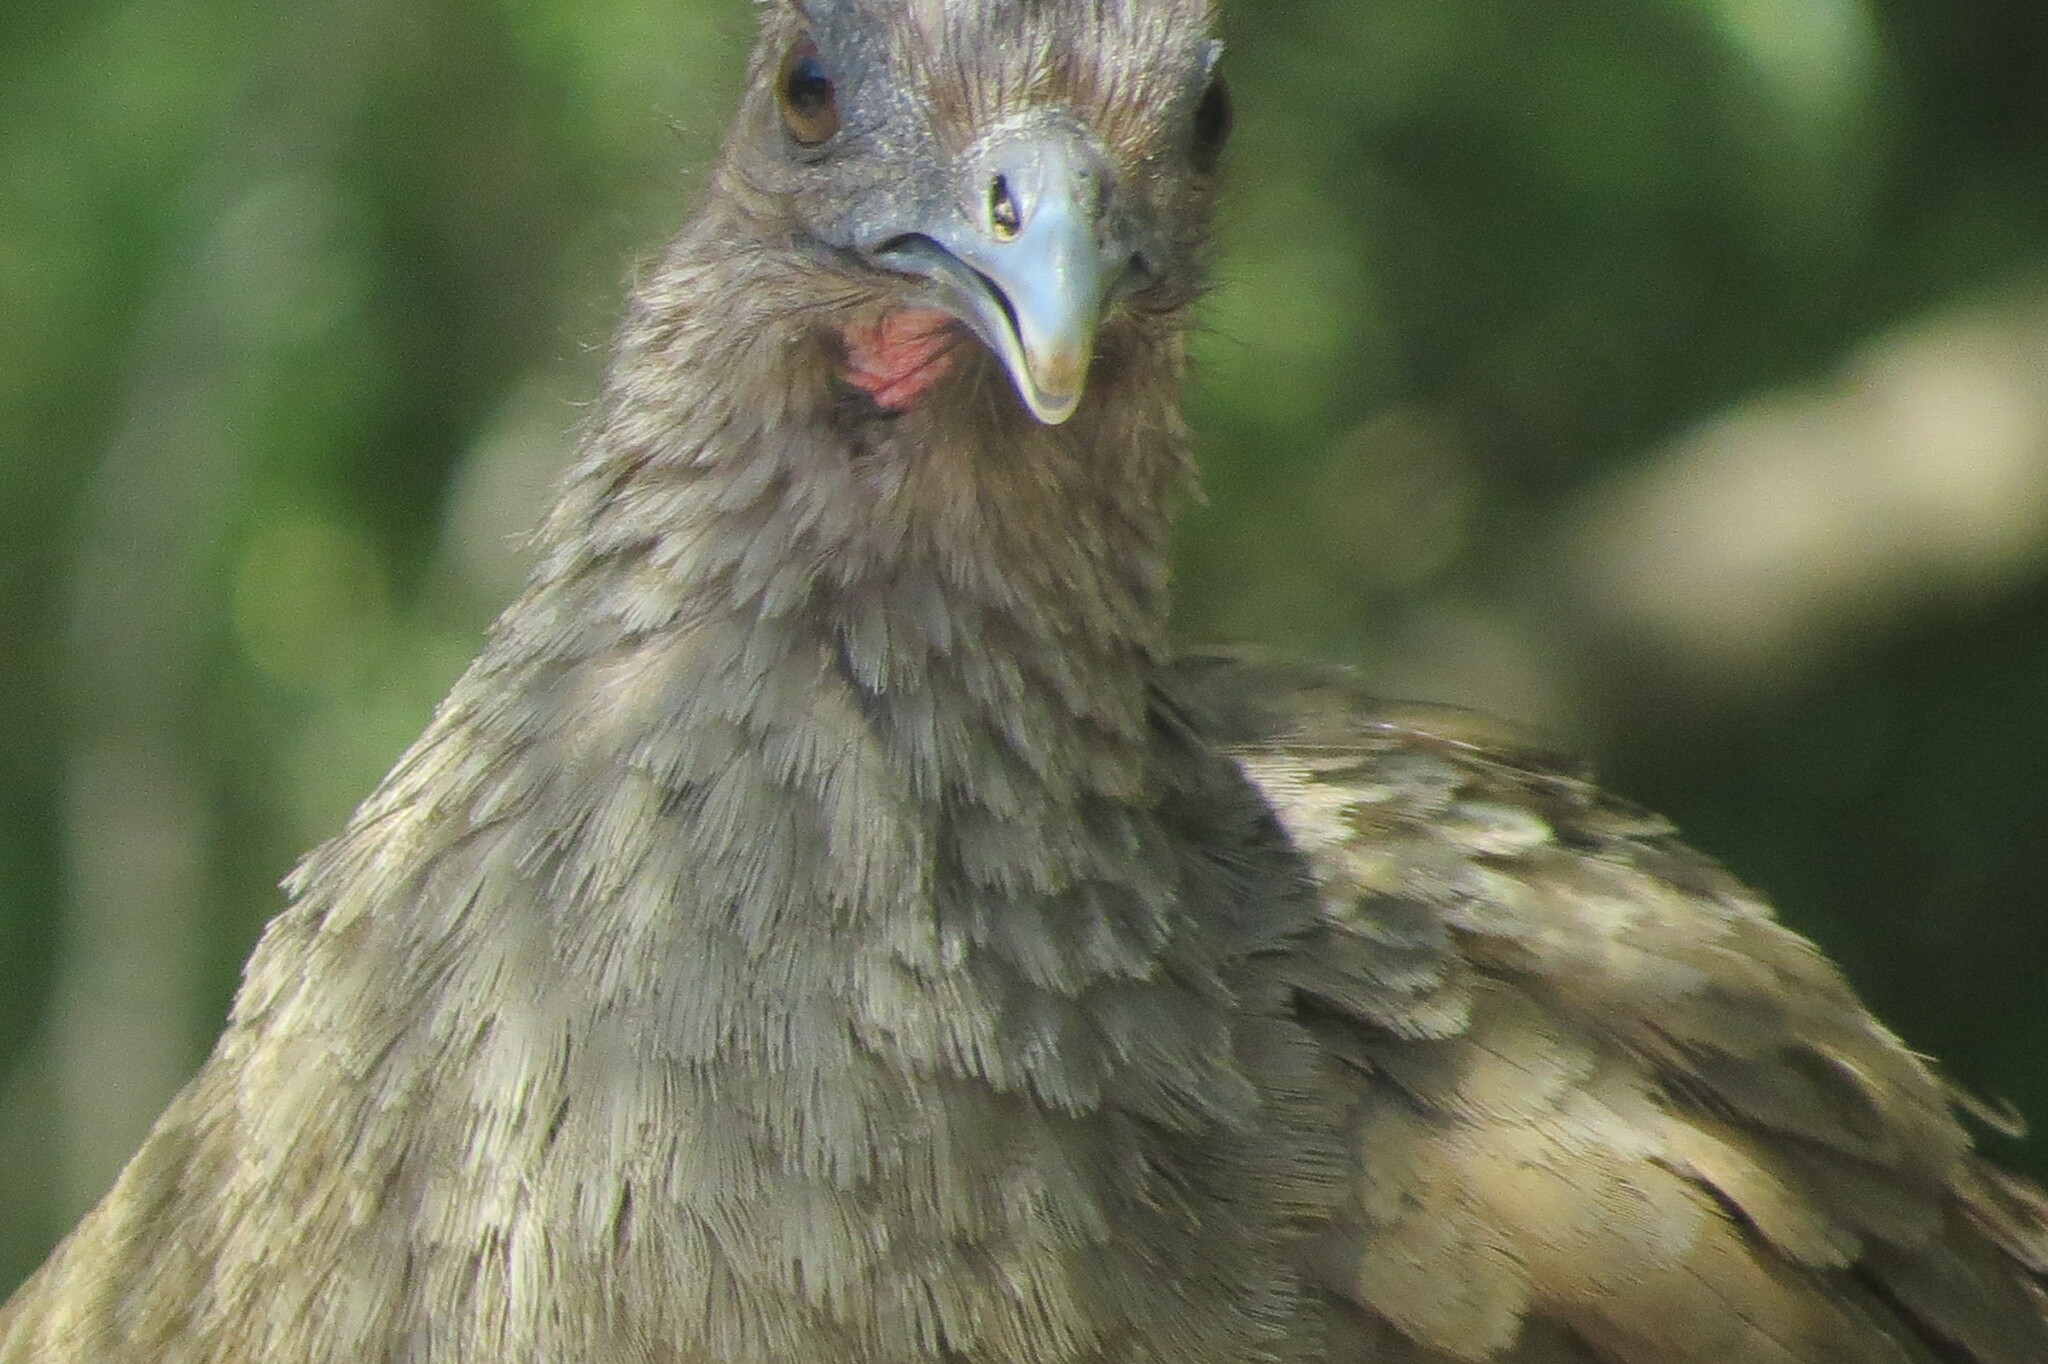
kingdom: Animalia
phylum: Chordata
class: Aves
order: Galliformes
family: Cracidae
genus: Ortalis
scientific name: Ortalis vetula
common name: Plain chachalaca
